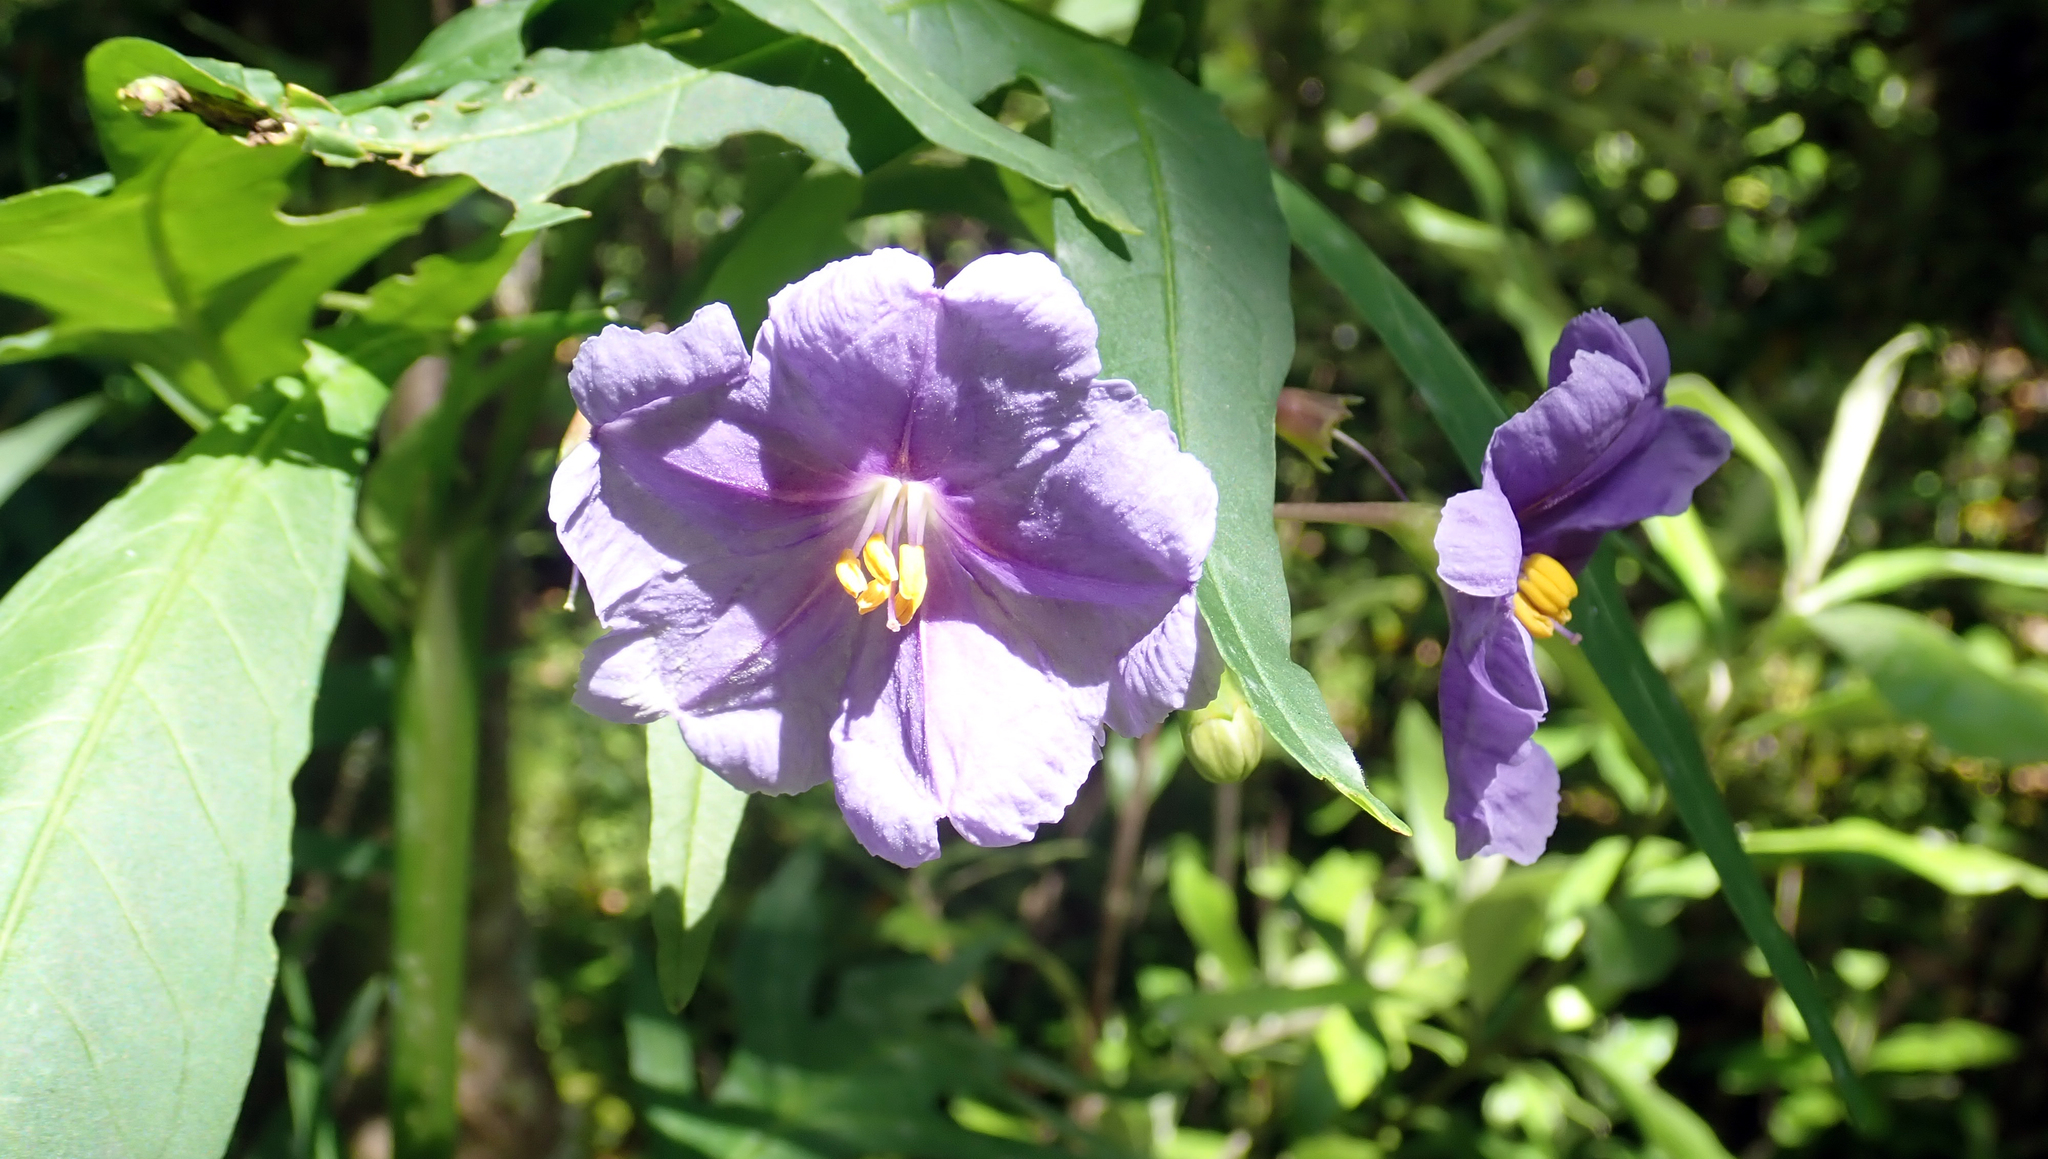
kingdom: Plantae
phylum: Tracheophyta
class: Magnoliopsida
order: Solanales
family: Solanaceae
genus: Solanum
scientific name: Solanum laciniatum
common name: Kangaroo-apple
